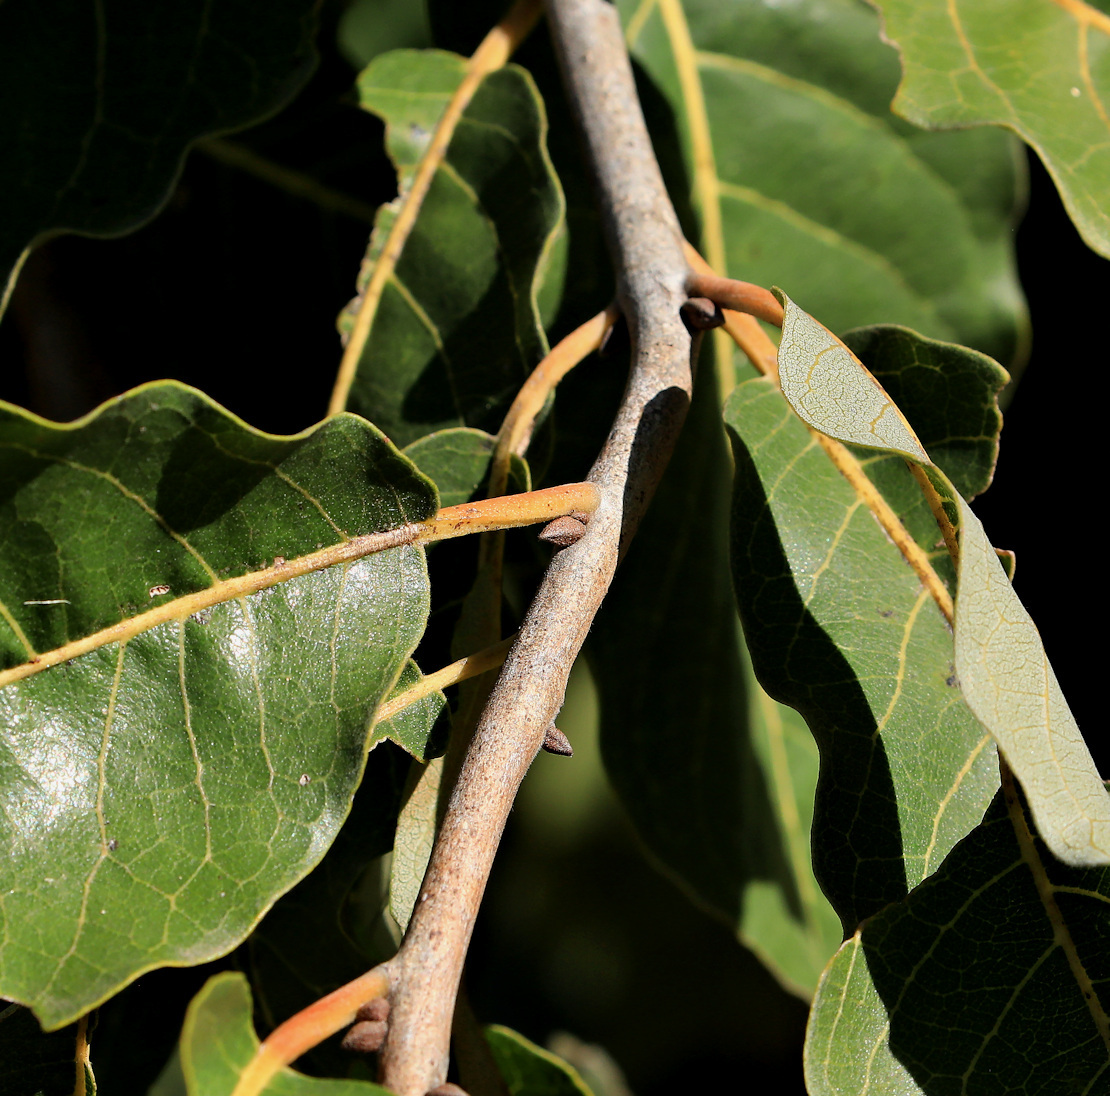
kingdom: Plantae
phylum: Tracheophyta
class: Magnoliopsida
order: Myrtales
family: Combretaceae
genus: Combretum
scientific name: Combretum collinum
